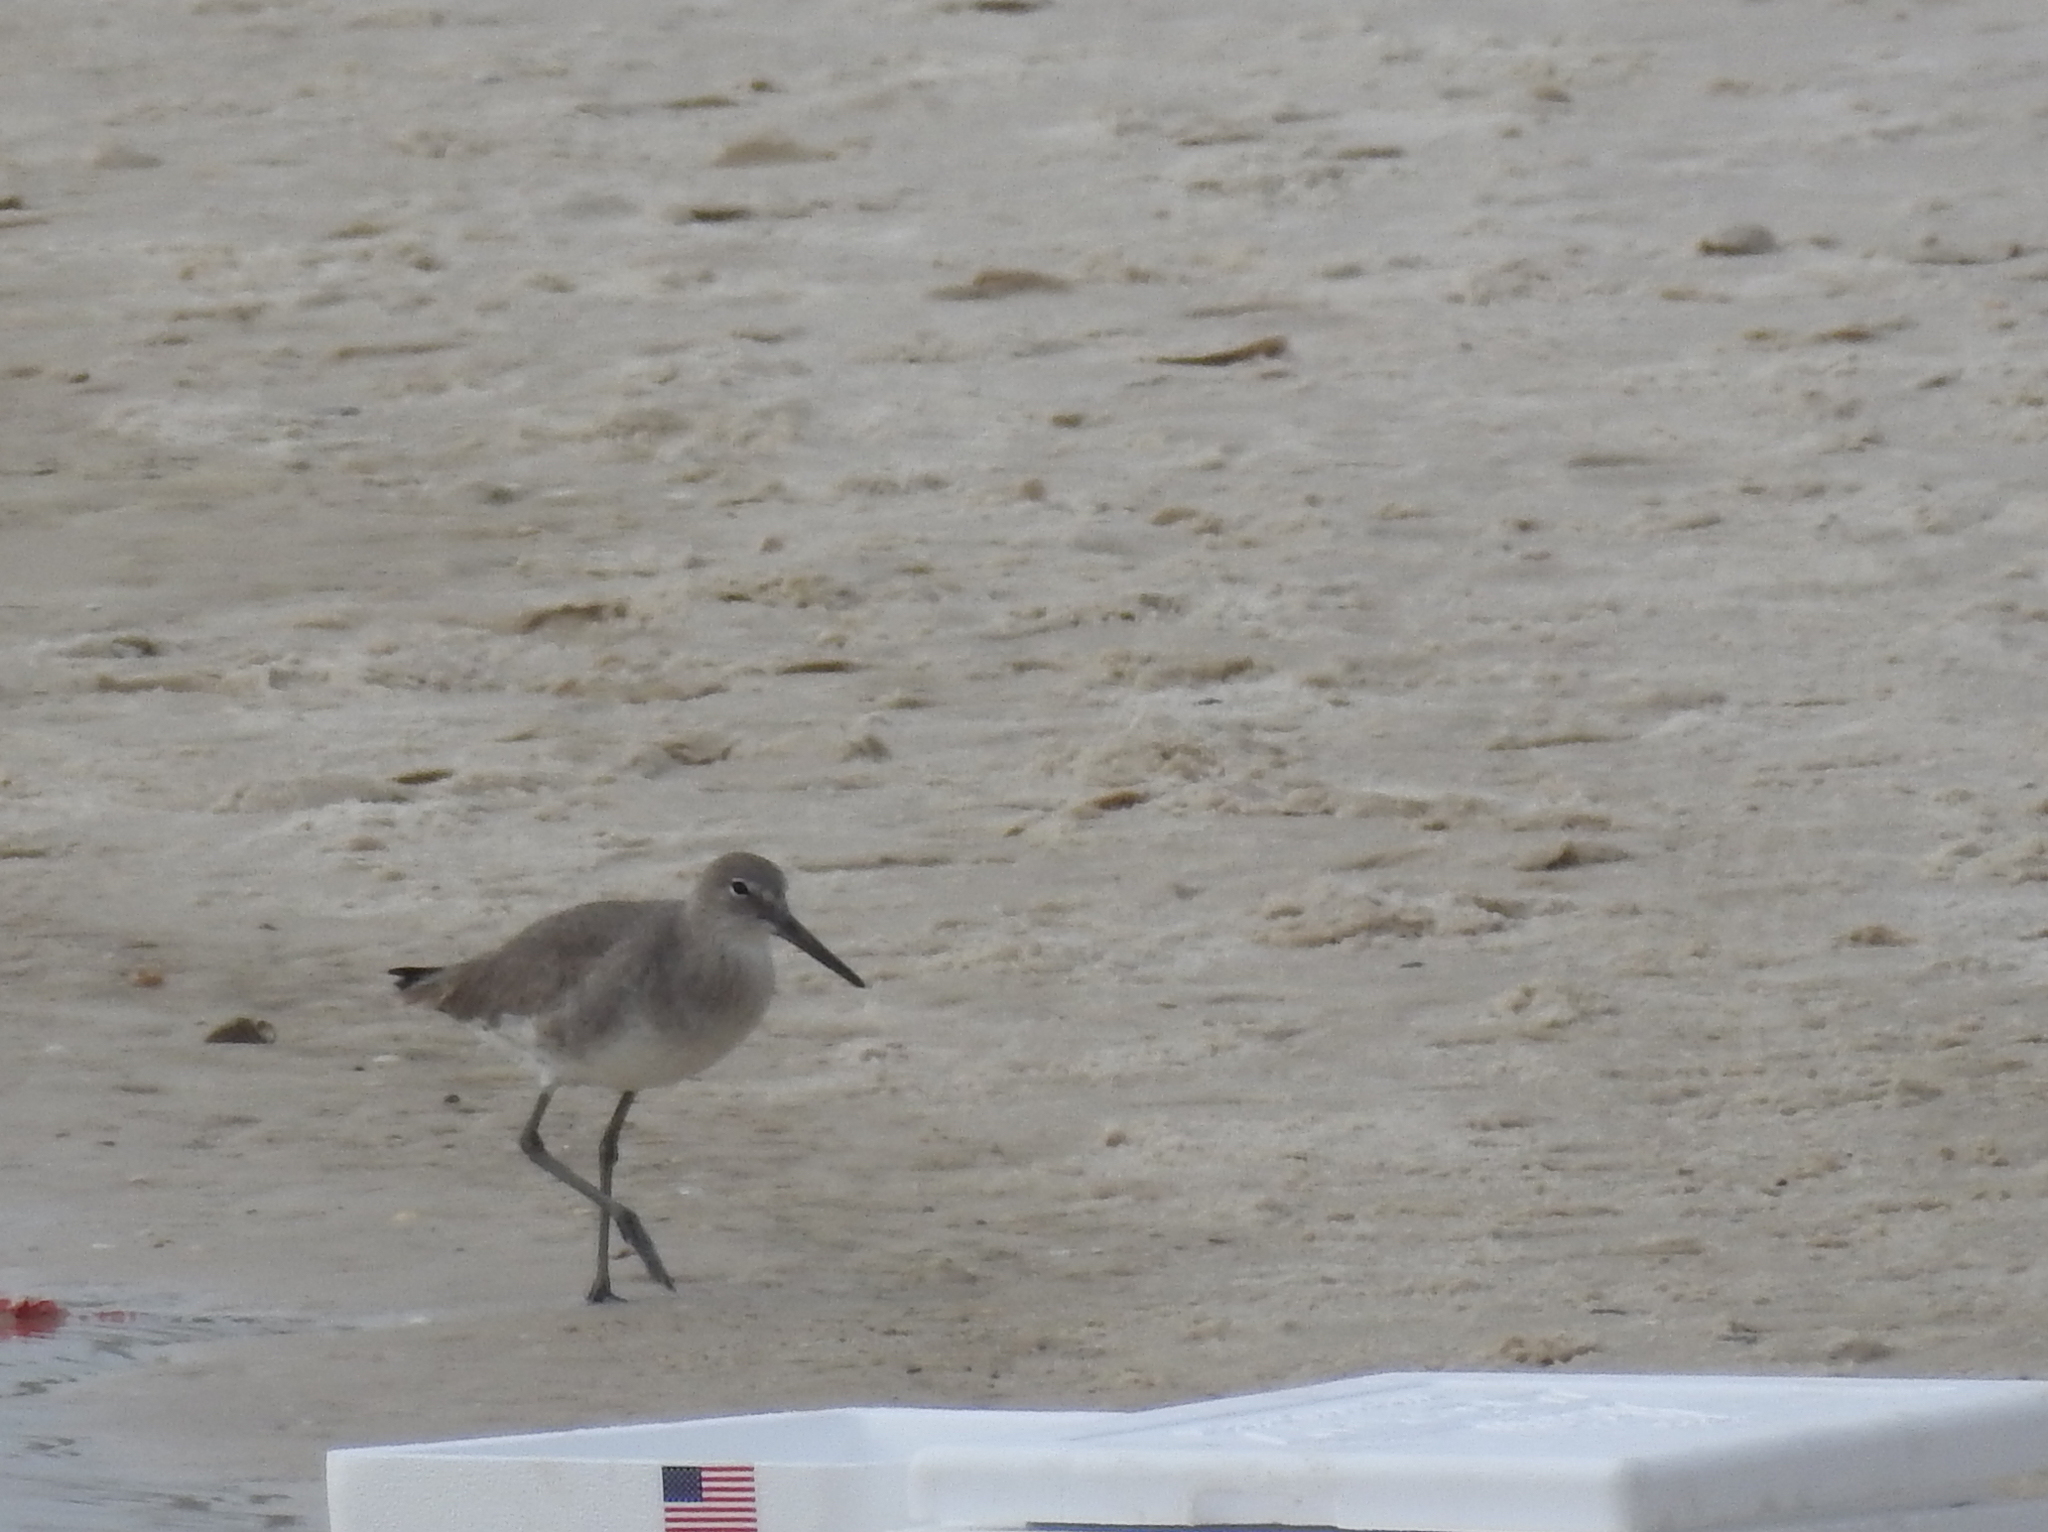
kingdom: Animalia
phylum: Chordata
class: Aves
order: Charadriiformes
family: Scolopacidae
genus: Tringa
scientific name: Tringa semipalmata
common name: Willet
